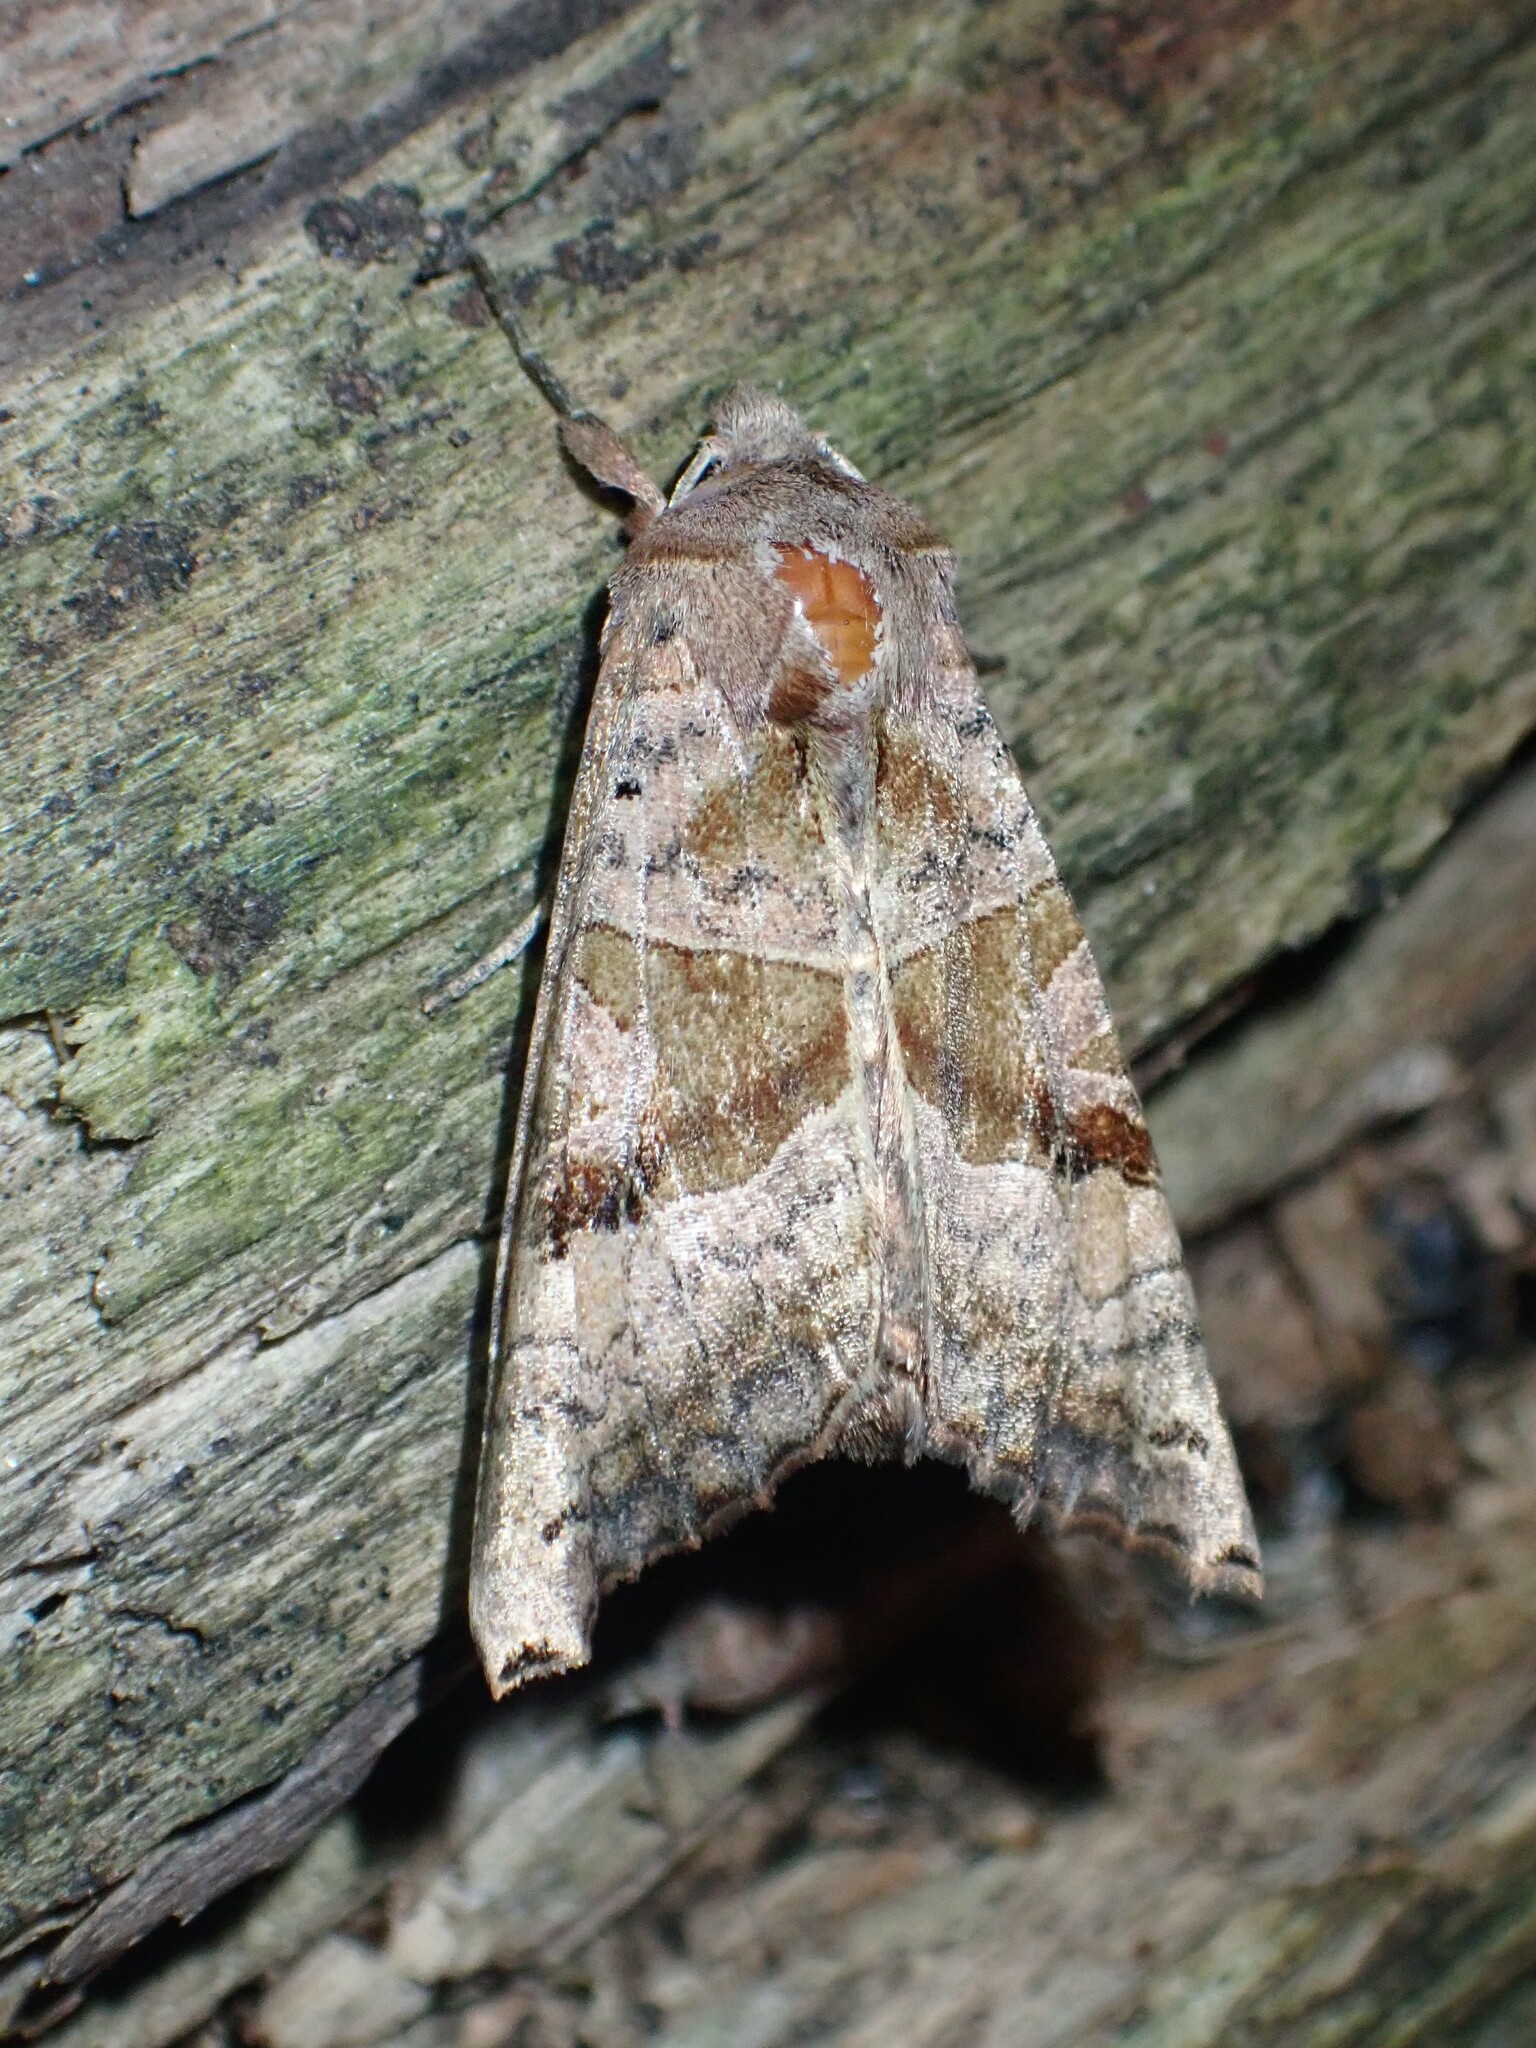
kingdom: Animalia
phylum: Arthropoda
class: Insecta
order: Lepidoptera
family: Noctuidae
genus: Phlogophora
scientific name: Phlogophora periculosa
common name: Brown angle shades
